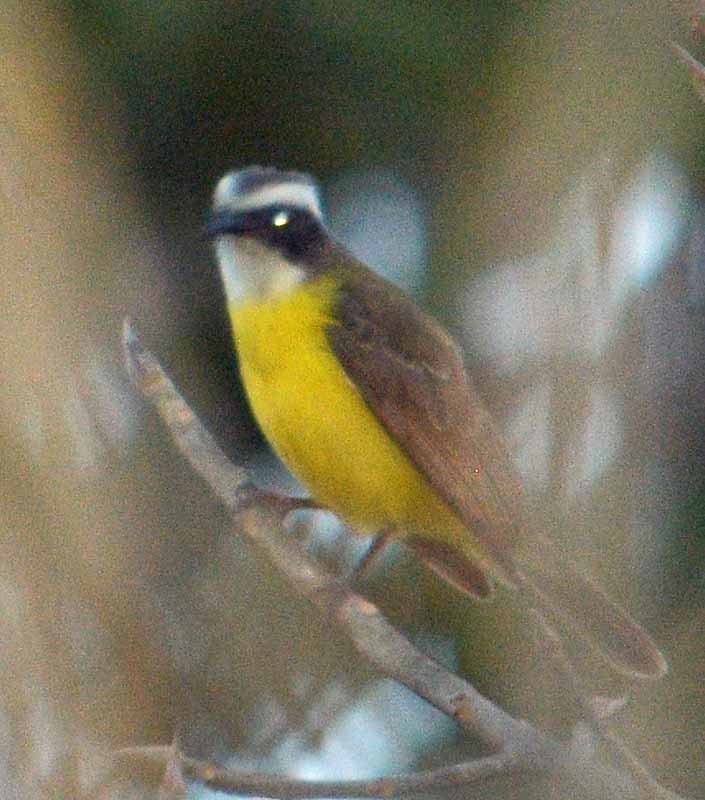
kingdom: Animalia
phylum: Chordata
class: Aves
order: Passeriformes
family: Tyrannidae
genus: Pitangus
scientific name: Pitangus sulphuratus
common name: Great kiskadee
